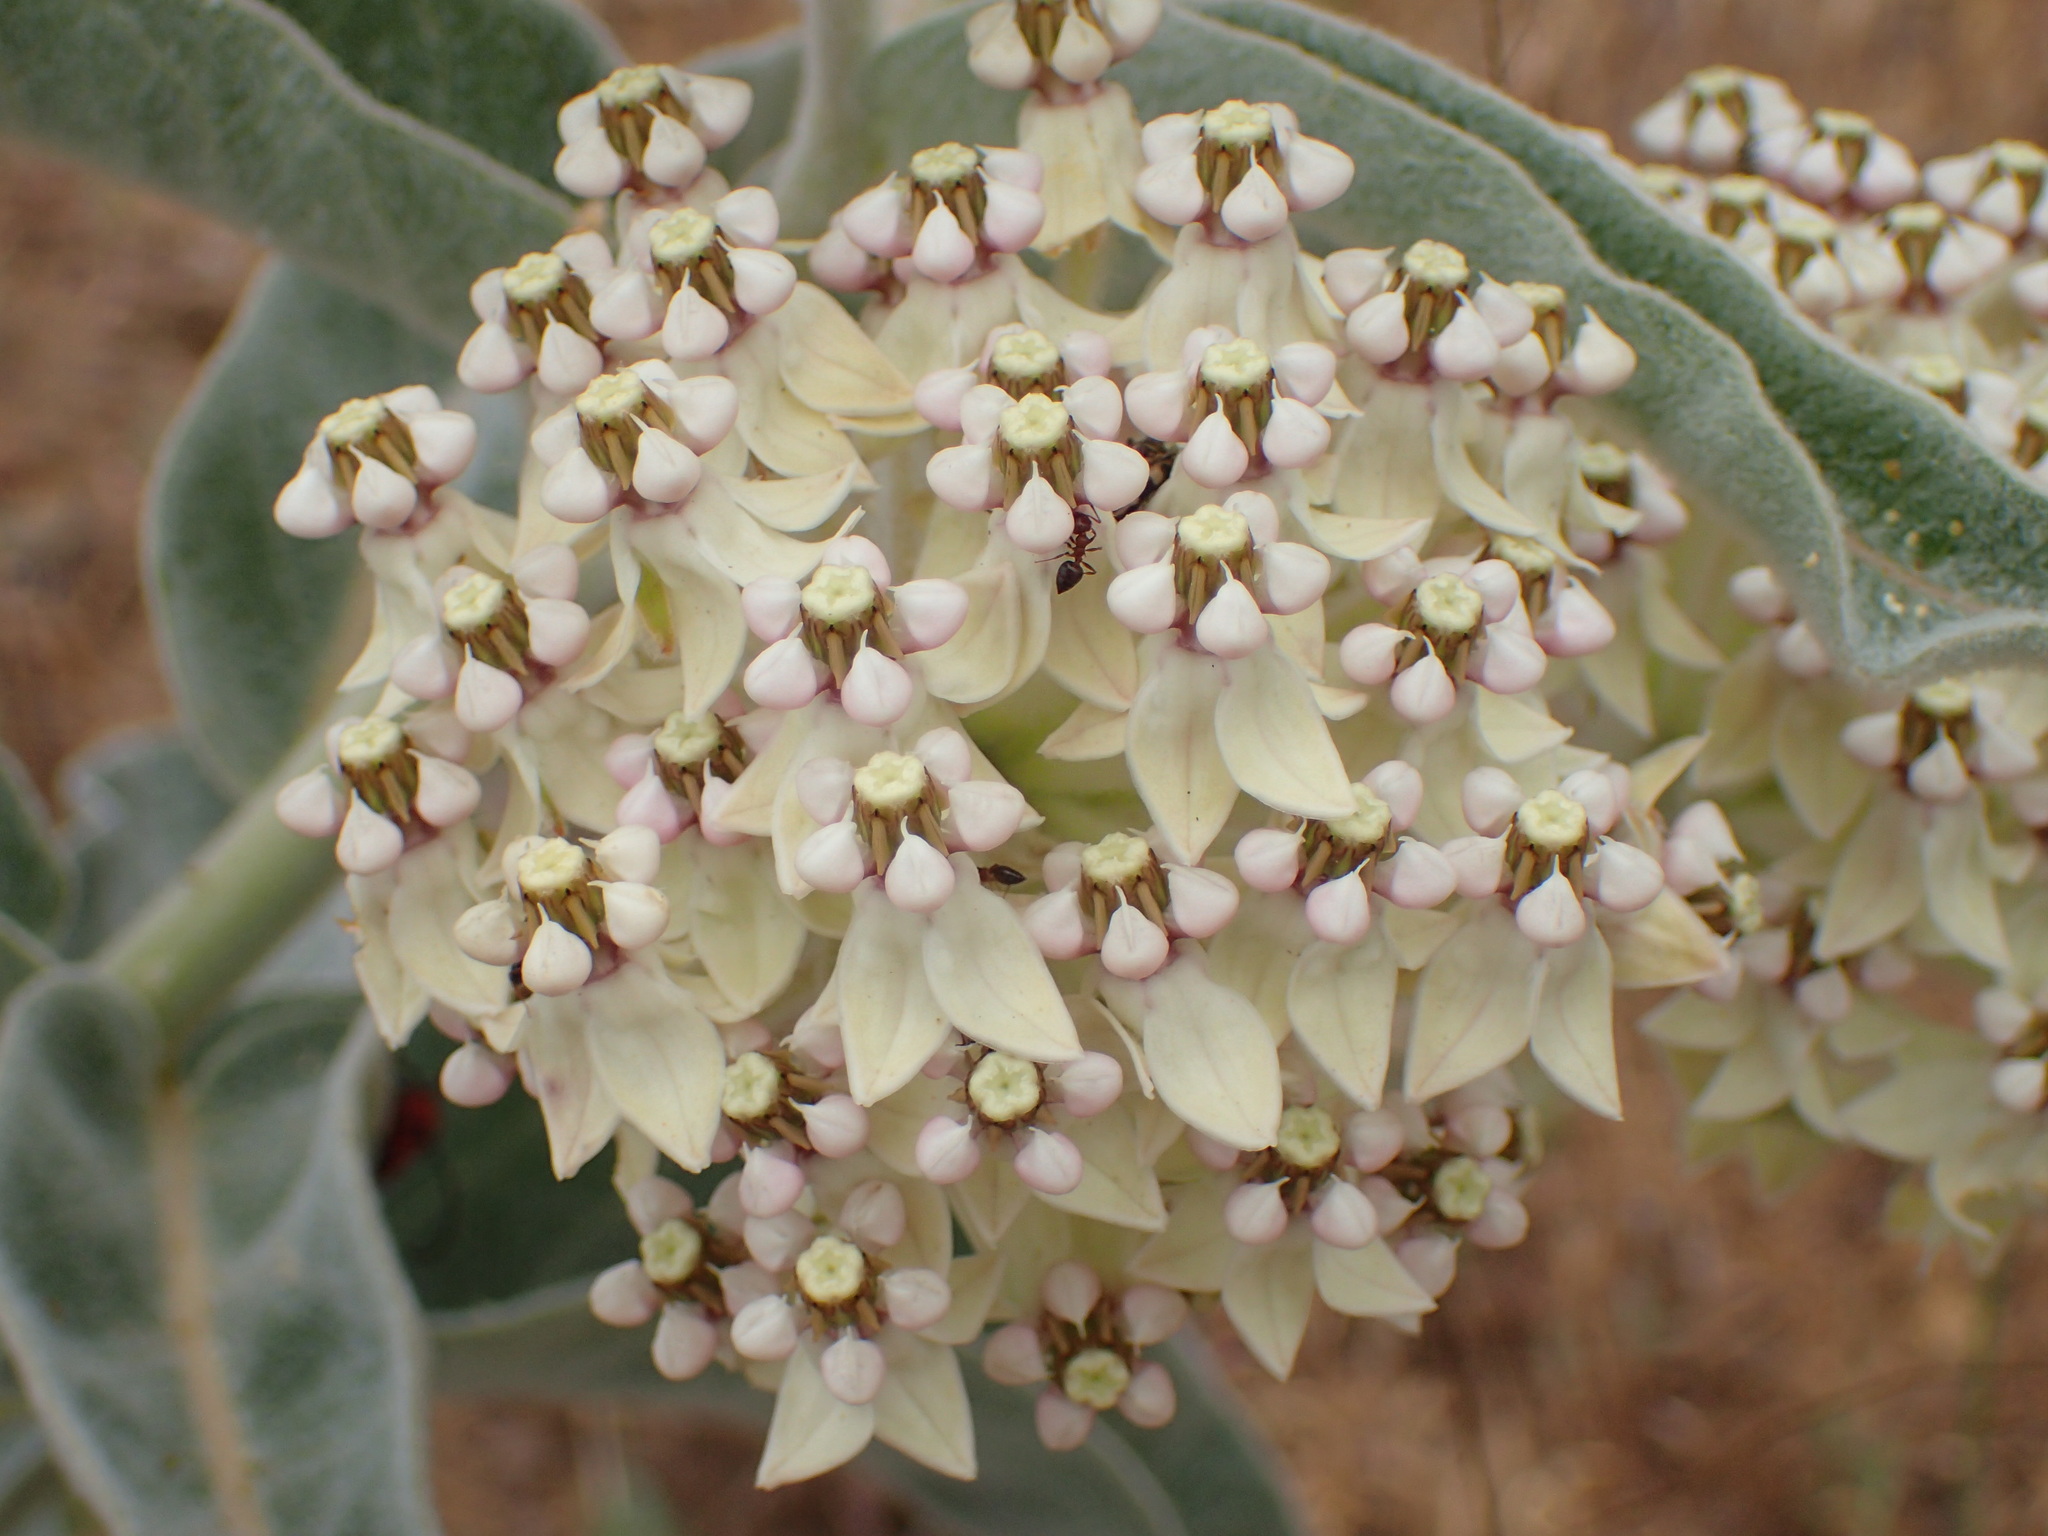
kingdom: Plantae
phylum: Tracheophyta
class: Magnoliopsida
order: Gentianales
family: Apocynaceae
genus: Asclepias
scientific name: Asclepias eriocarpa
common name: Indian milkweed
